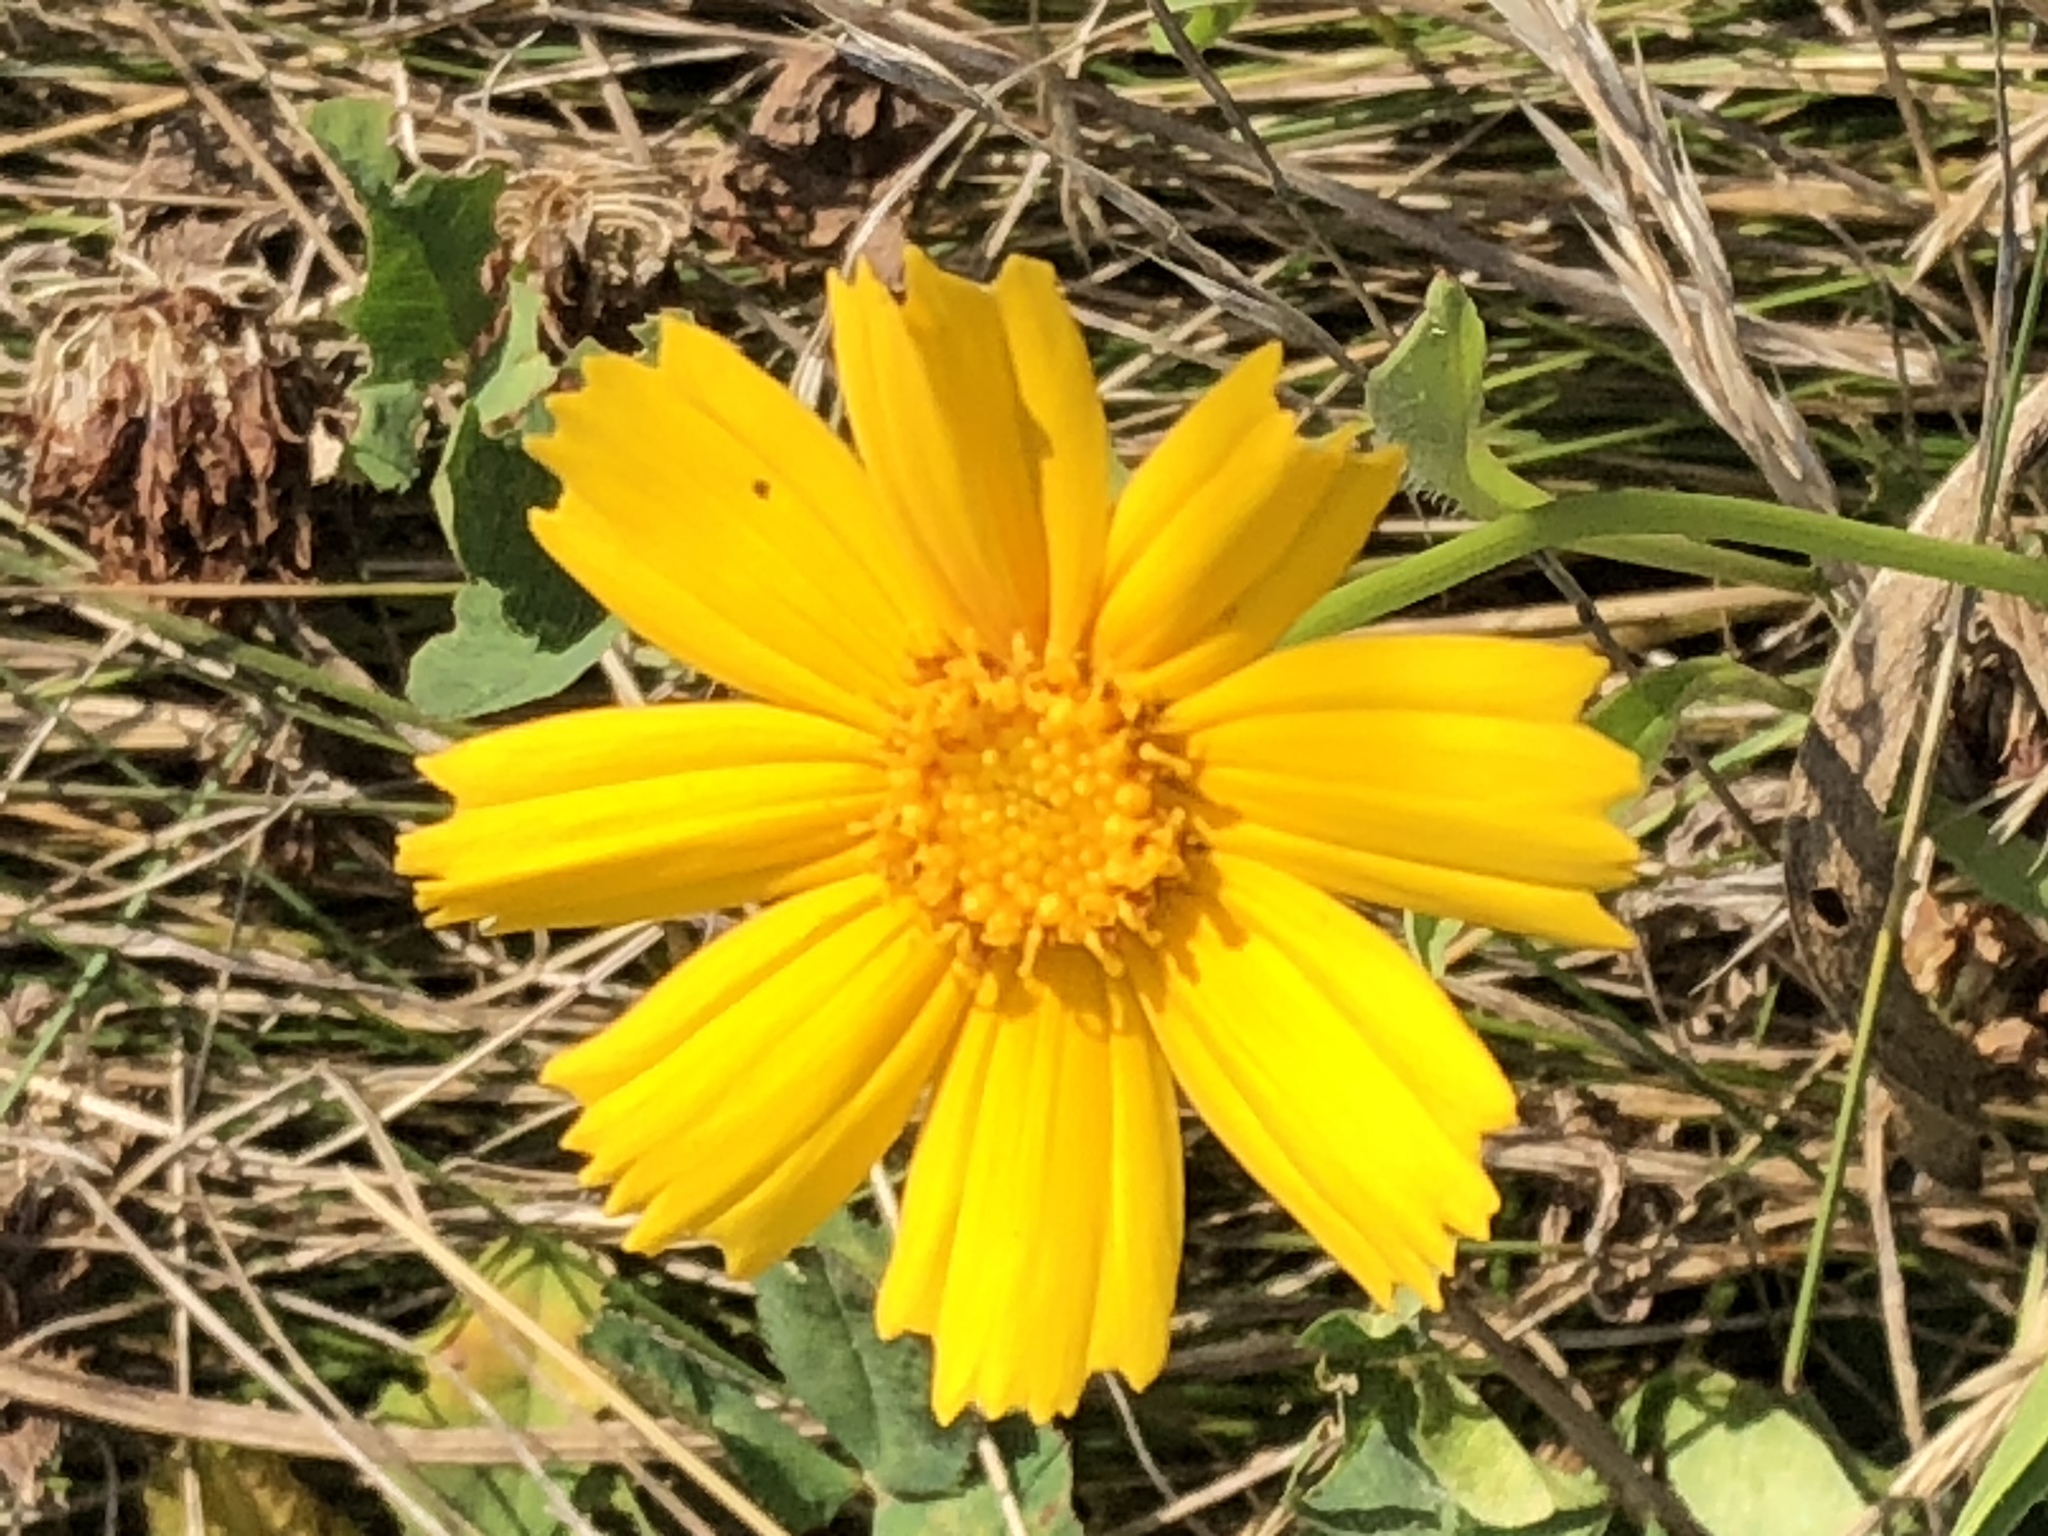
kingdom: Plantae
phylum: Tracheophyta
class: Magnoliopsida
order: Asterales
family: Asteraceae
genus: Coreopsis
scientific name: Coreopsis lanceolata
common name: Garden coreopsis
